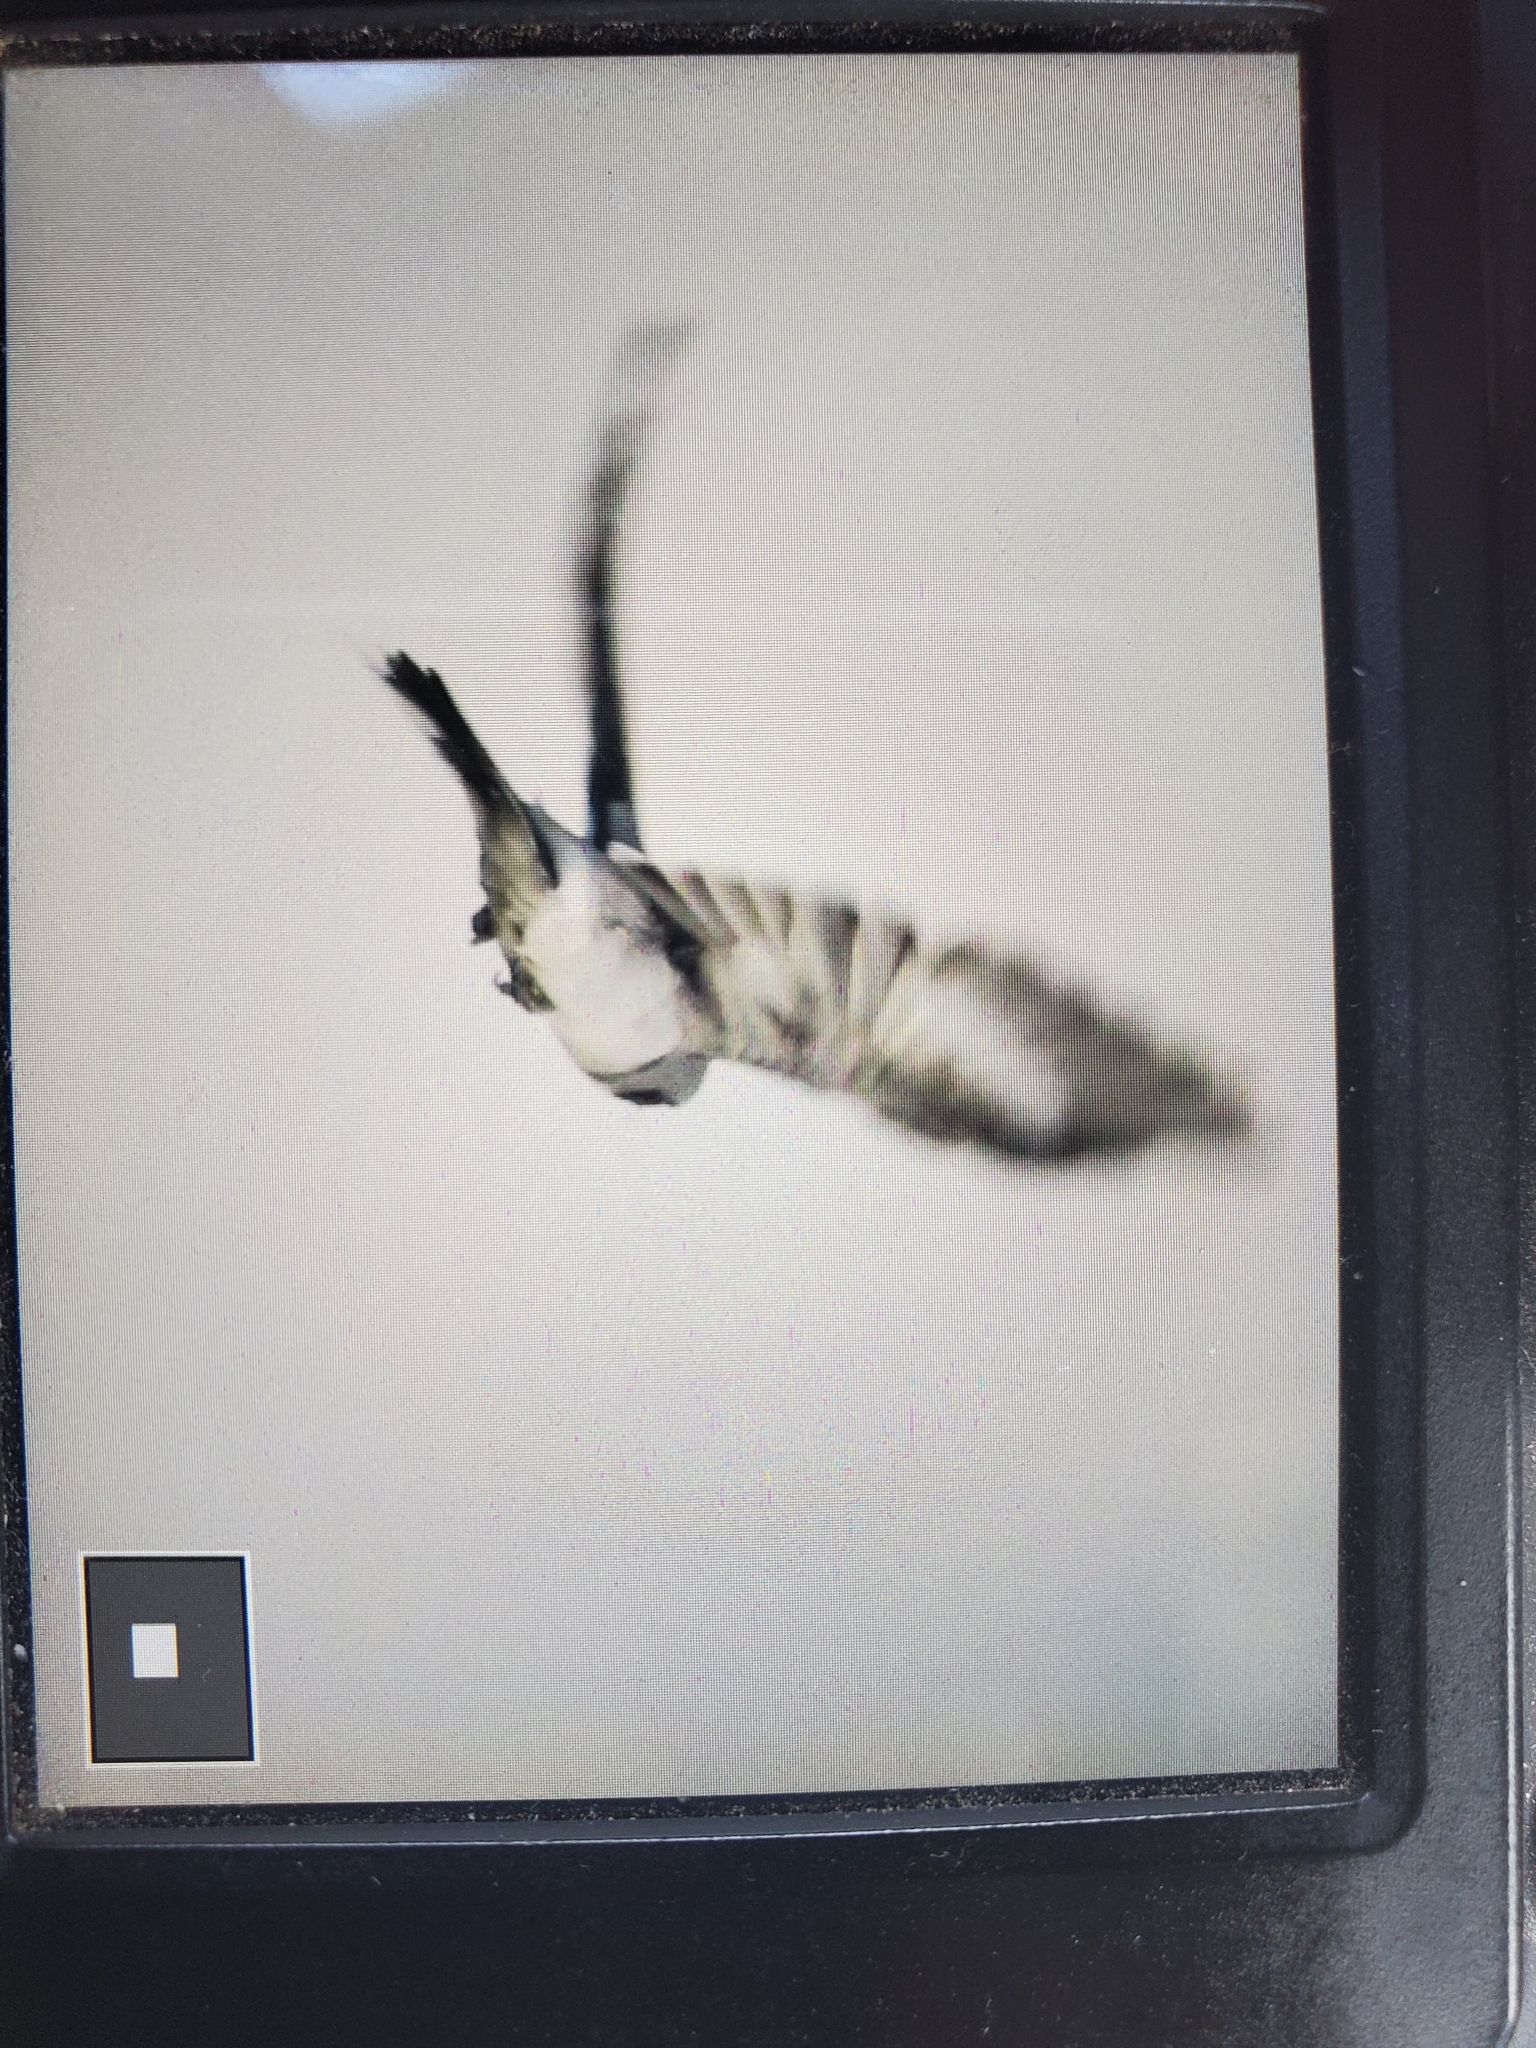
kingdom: Animalia
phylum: Chordata
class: Aves
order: Passeriformes
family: Laniidae
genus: Lanius
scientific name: Lanius ludovicianus
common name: Loggerhead shrike
